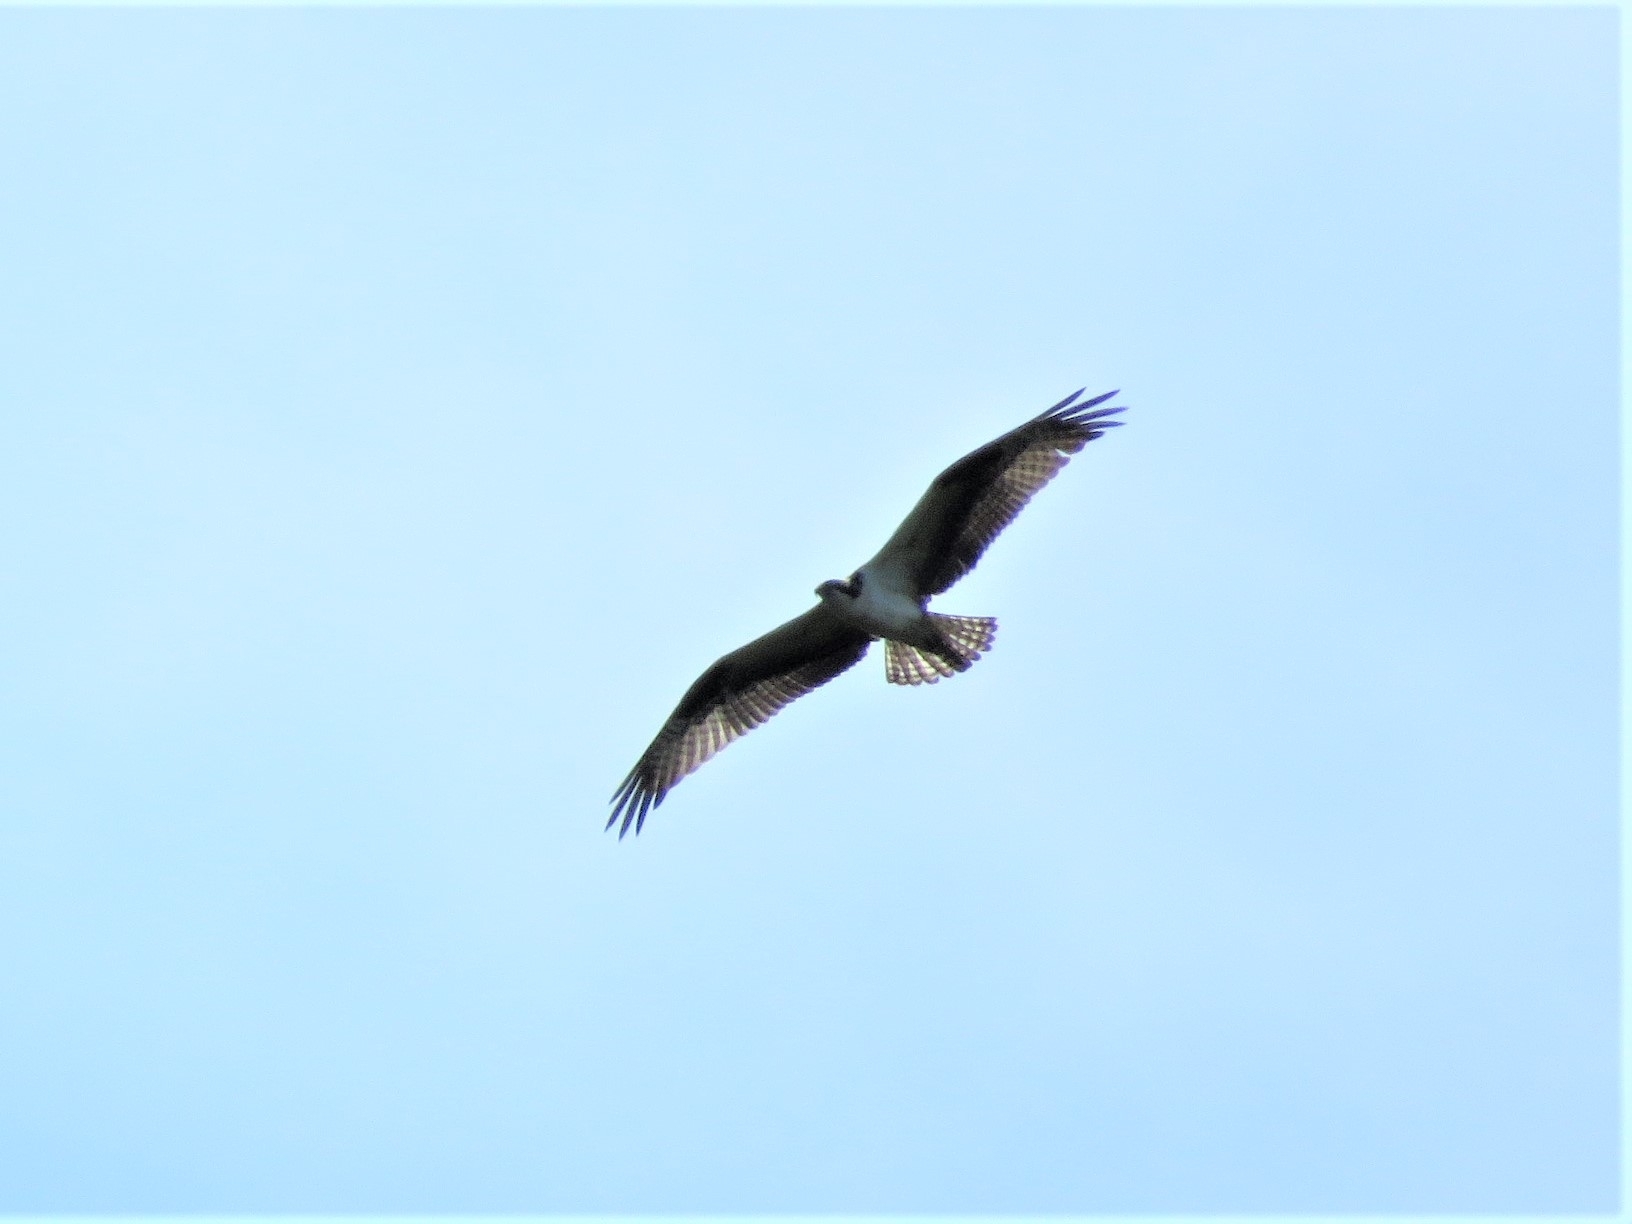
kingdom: Animalia
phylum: Chordata
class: Aves
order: Accipitriformes
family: Pandionidae
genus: Pandion
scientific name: Pandion haliaetus
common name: Osprey
